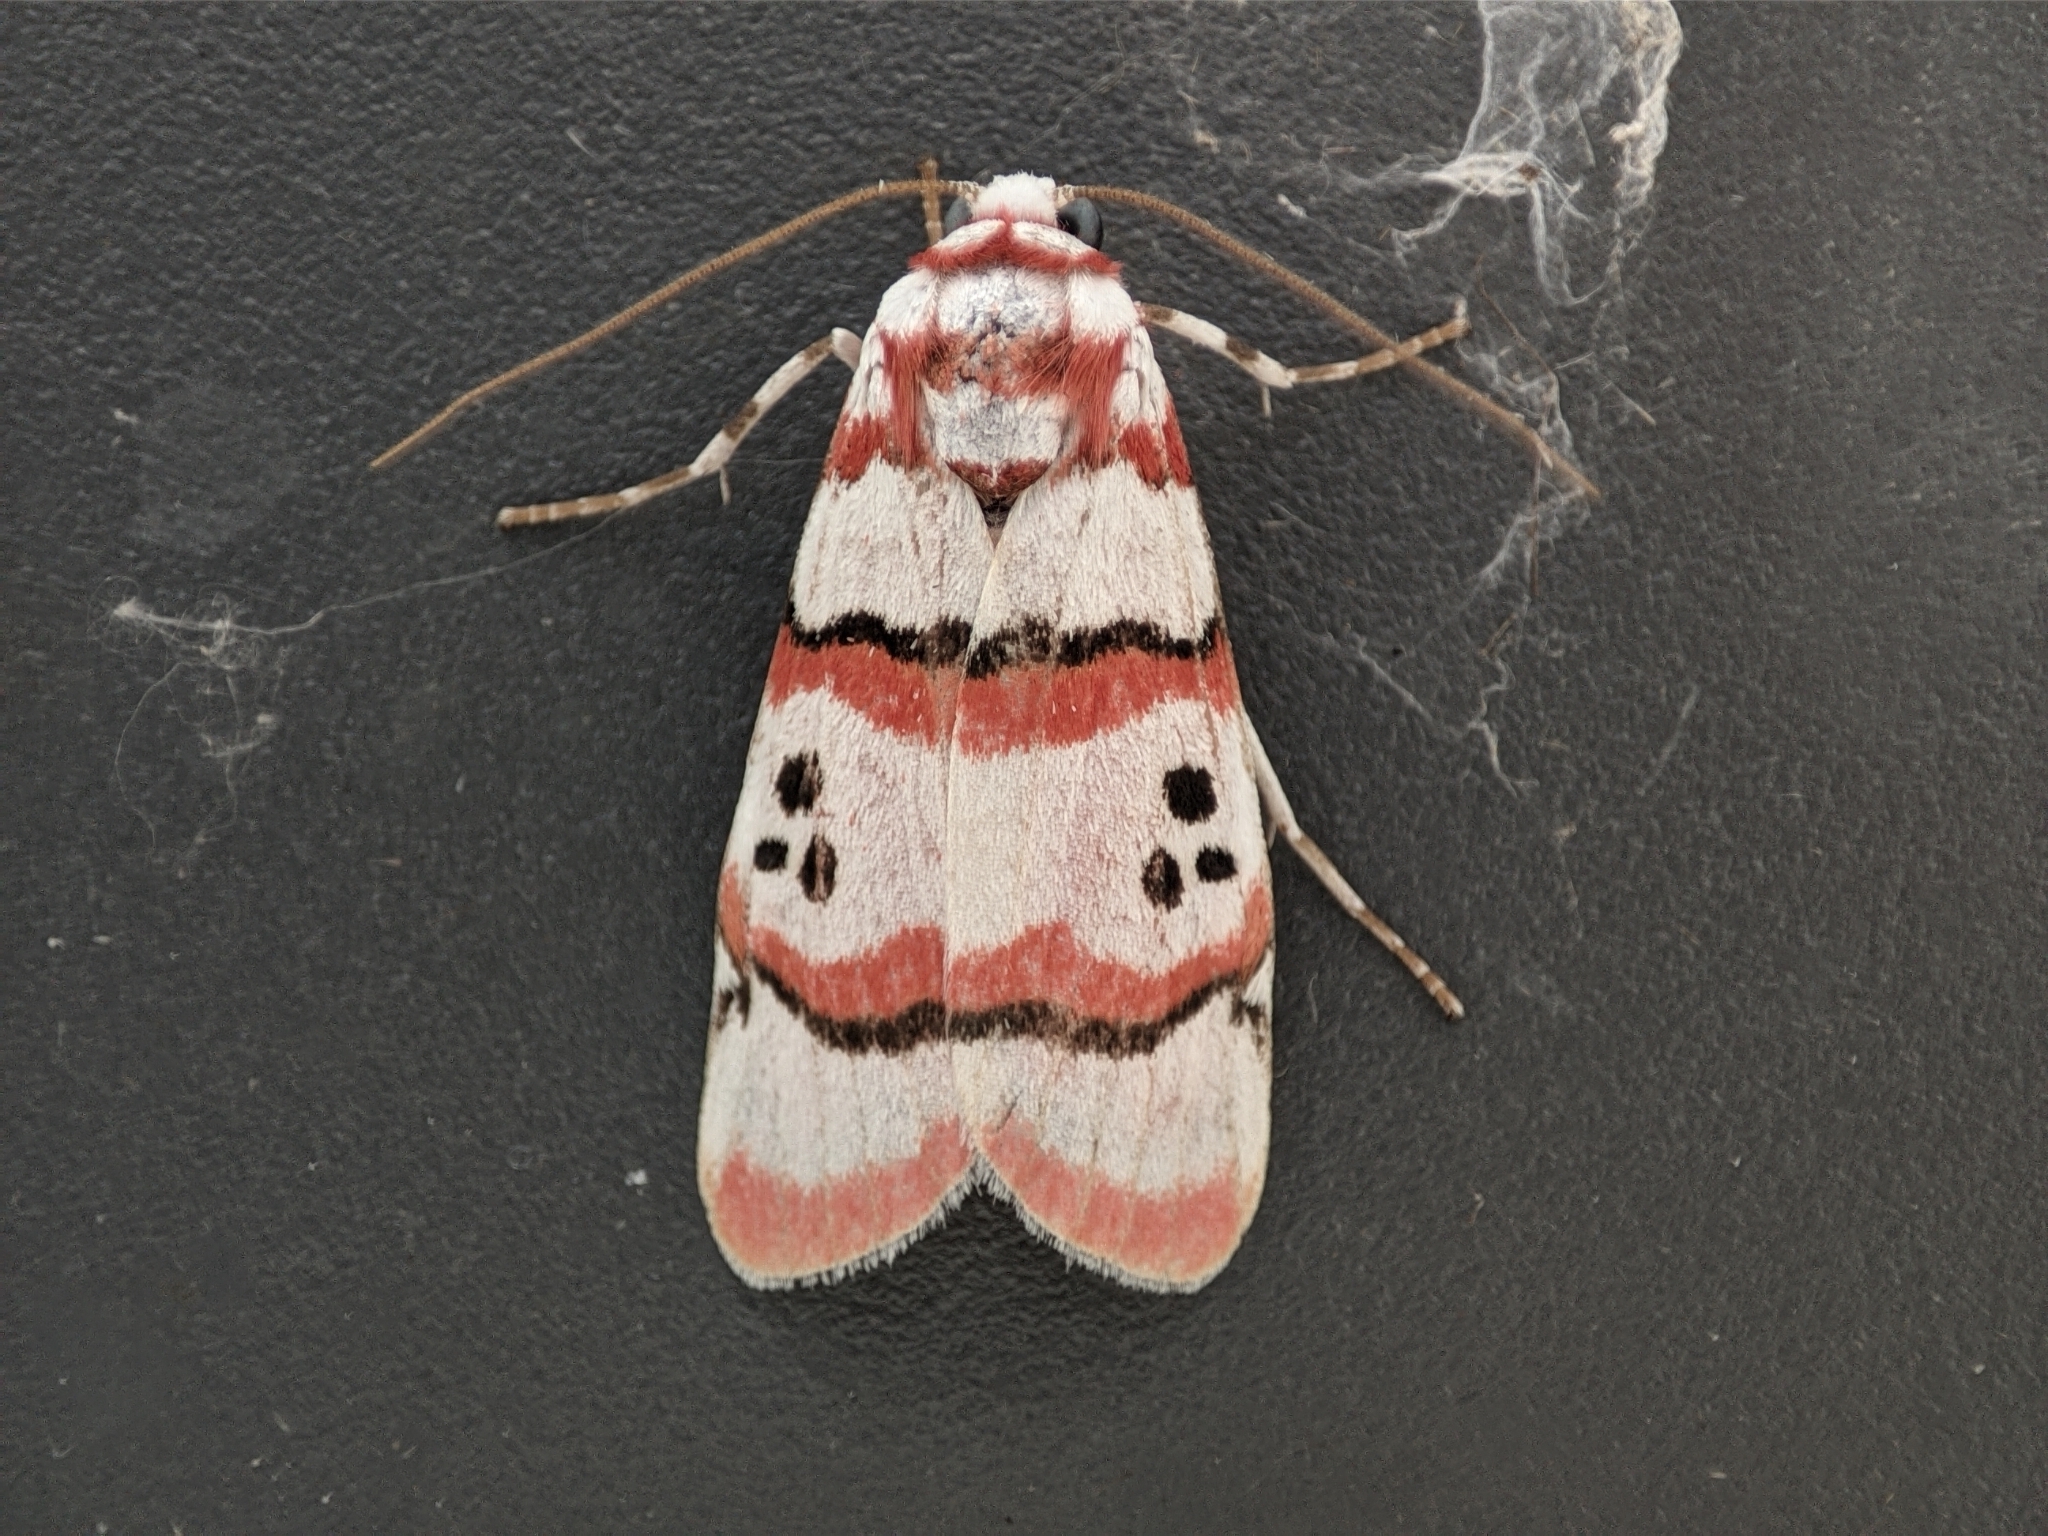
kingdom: Animalia
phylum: Arthropoda
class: Insecta
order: Lepidoptera
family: Erebidae
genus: Cyana
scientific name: Cyana indosinica
